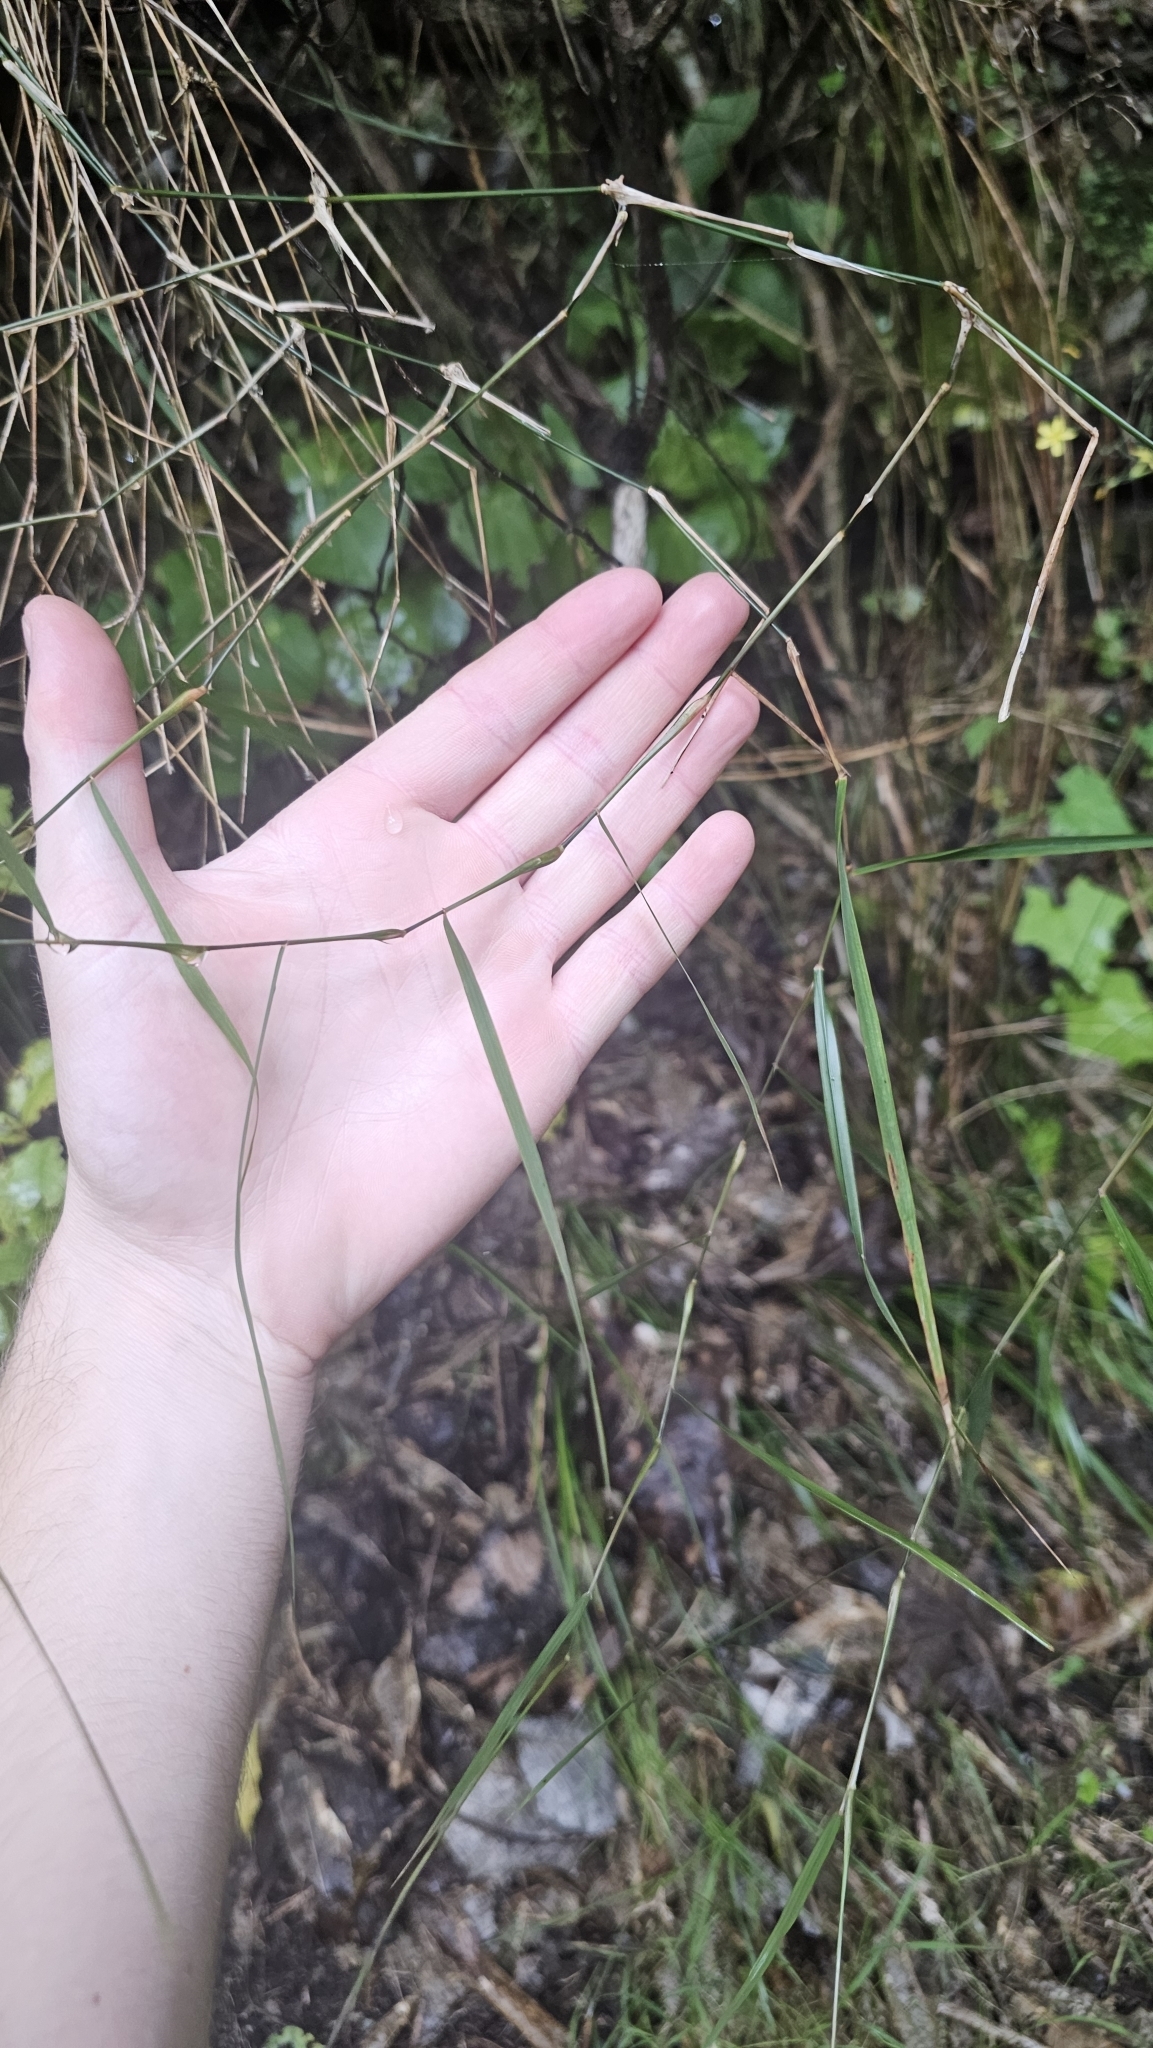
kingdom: Plantae
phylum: Tracheophyta
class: Liliopsida
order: Poales
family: Poaceae
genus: Microlaena
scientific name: Microlaena polynoda
